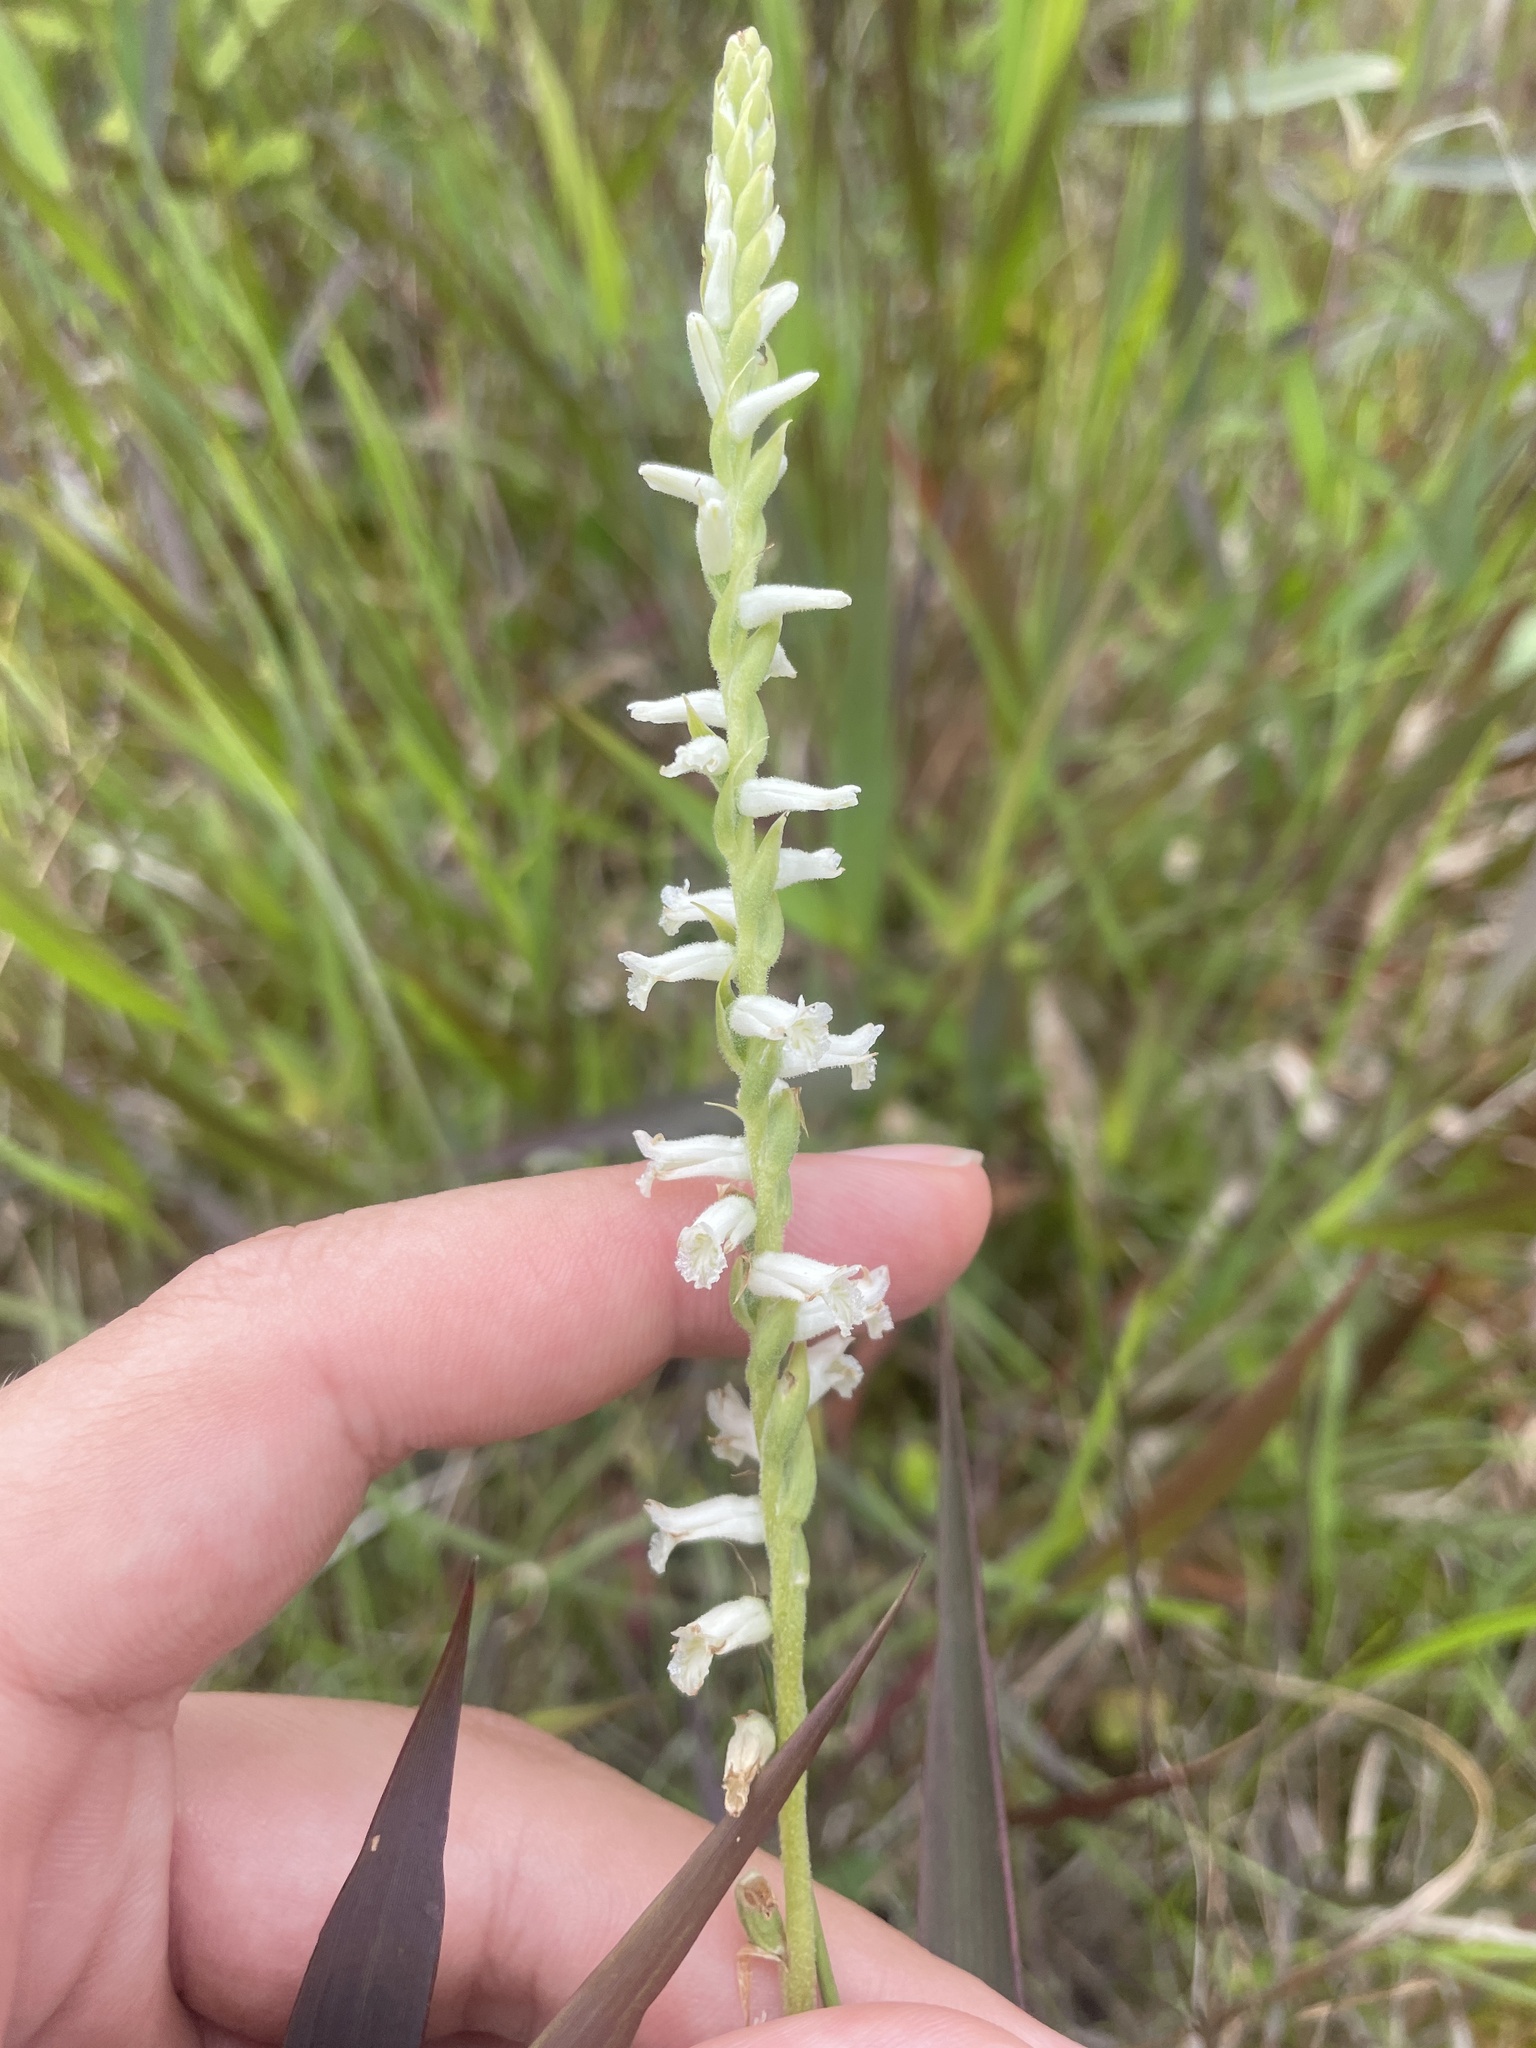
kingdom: Plantae
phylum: Tracheophyta
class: Liliopsida
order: Asparagales
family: Orchidaceae
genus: Spiranthes
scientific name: Spiranthes praecox
